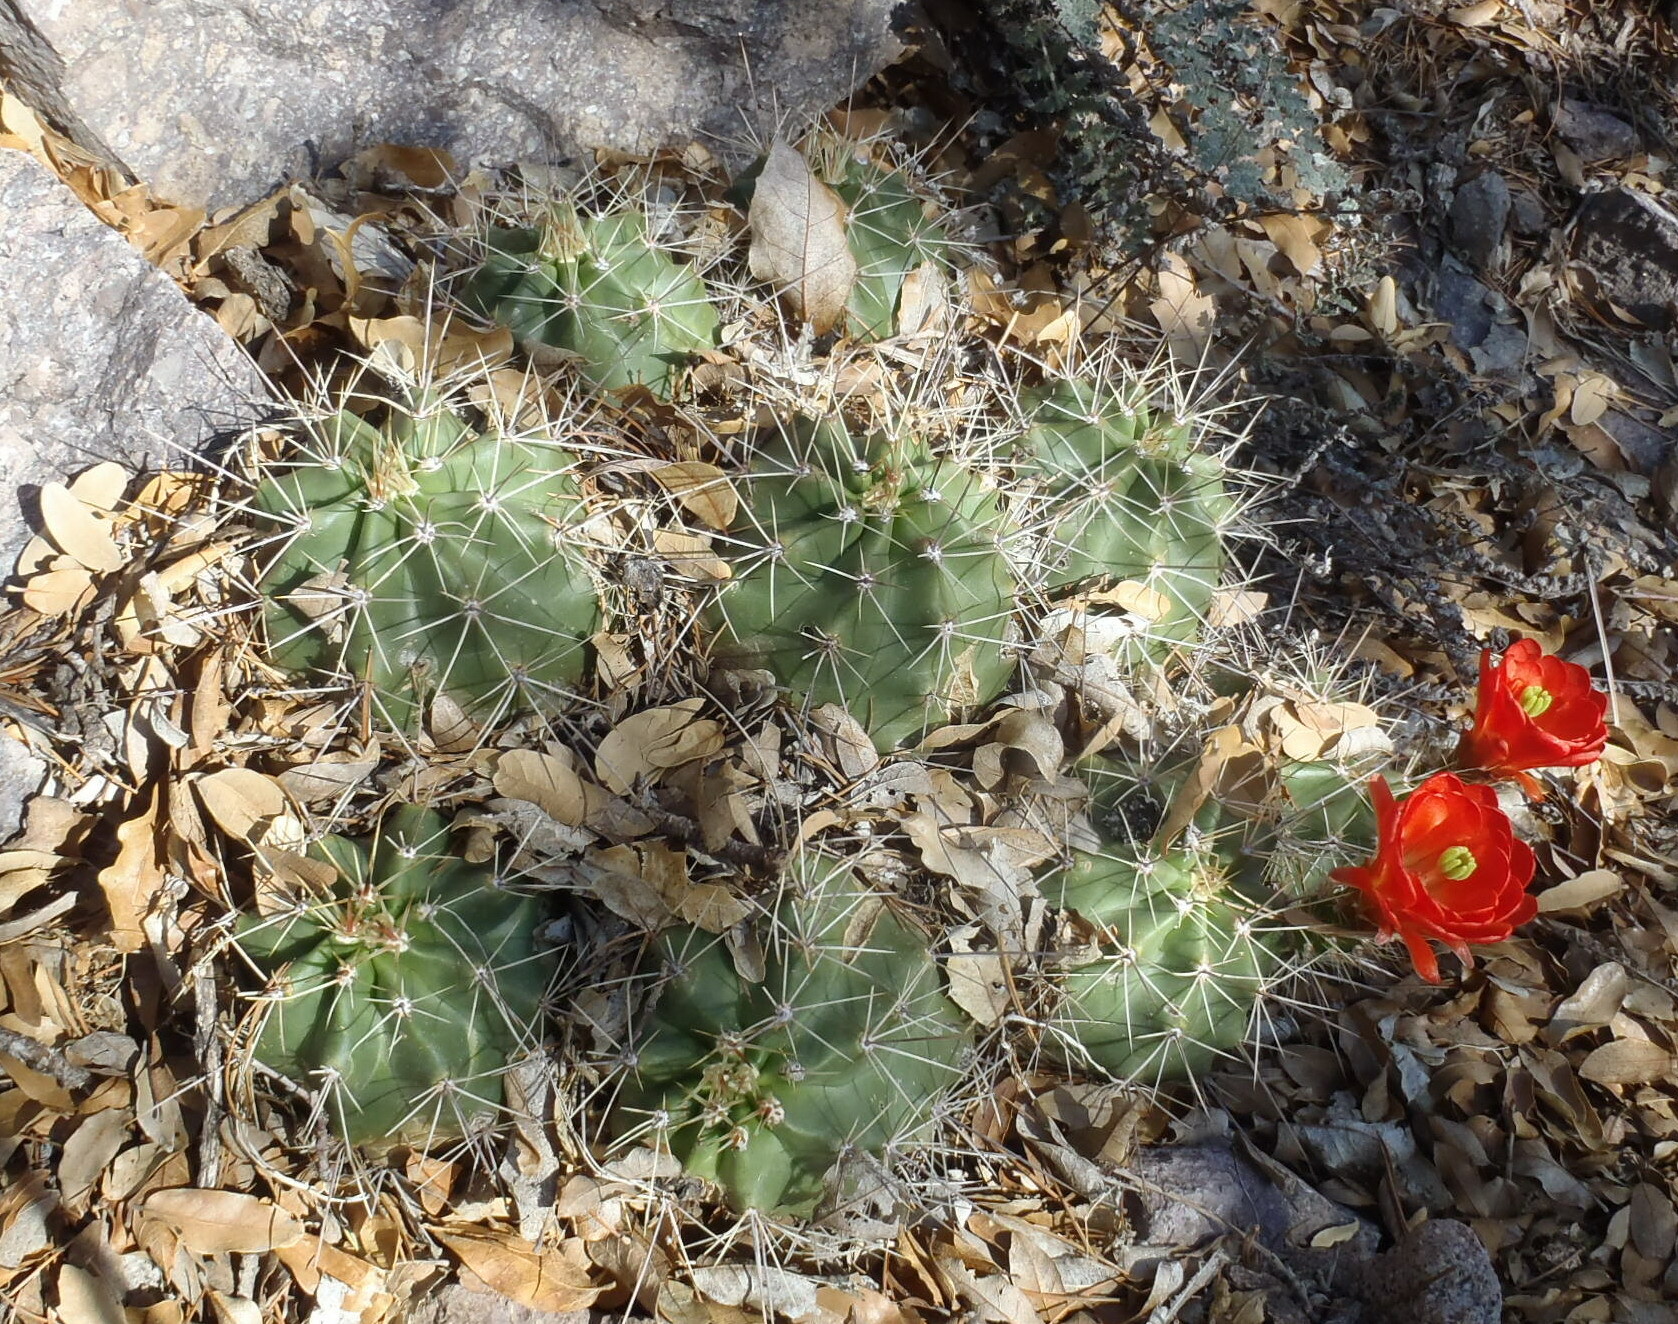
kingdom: Plantae
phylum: Tracheophyta
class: Magnoliopsida
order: Caryophyllales
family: Cactaceae
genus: Echinocereus
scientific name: Echinocereus coccineus
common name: Scarlet hedgehog cactus
